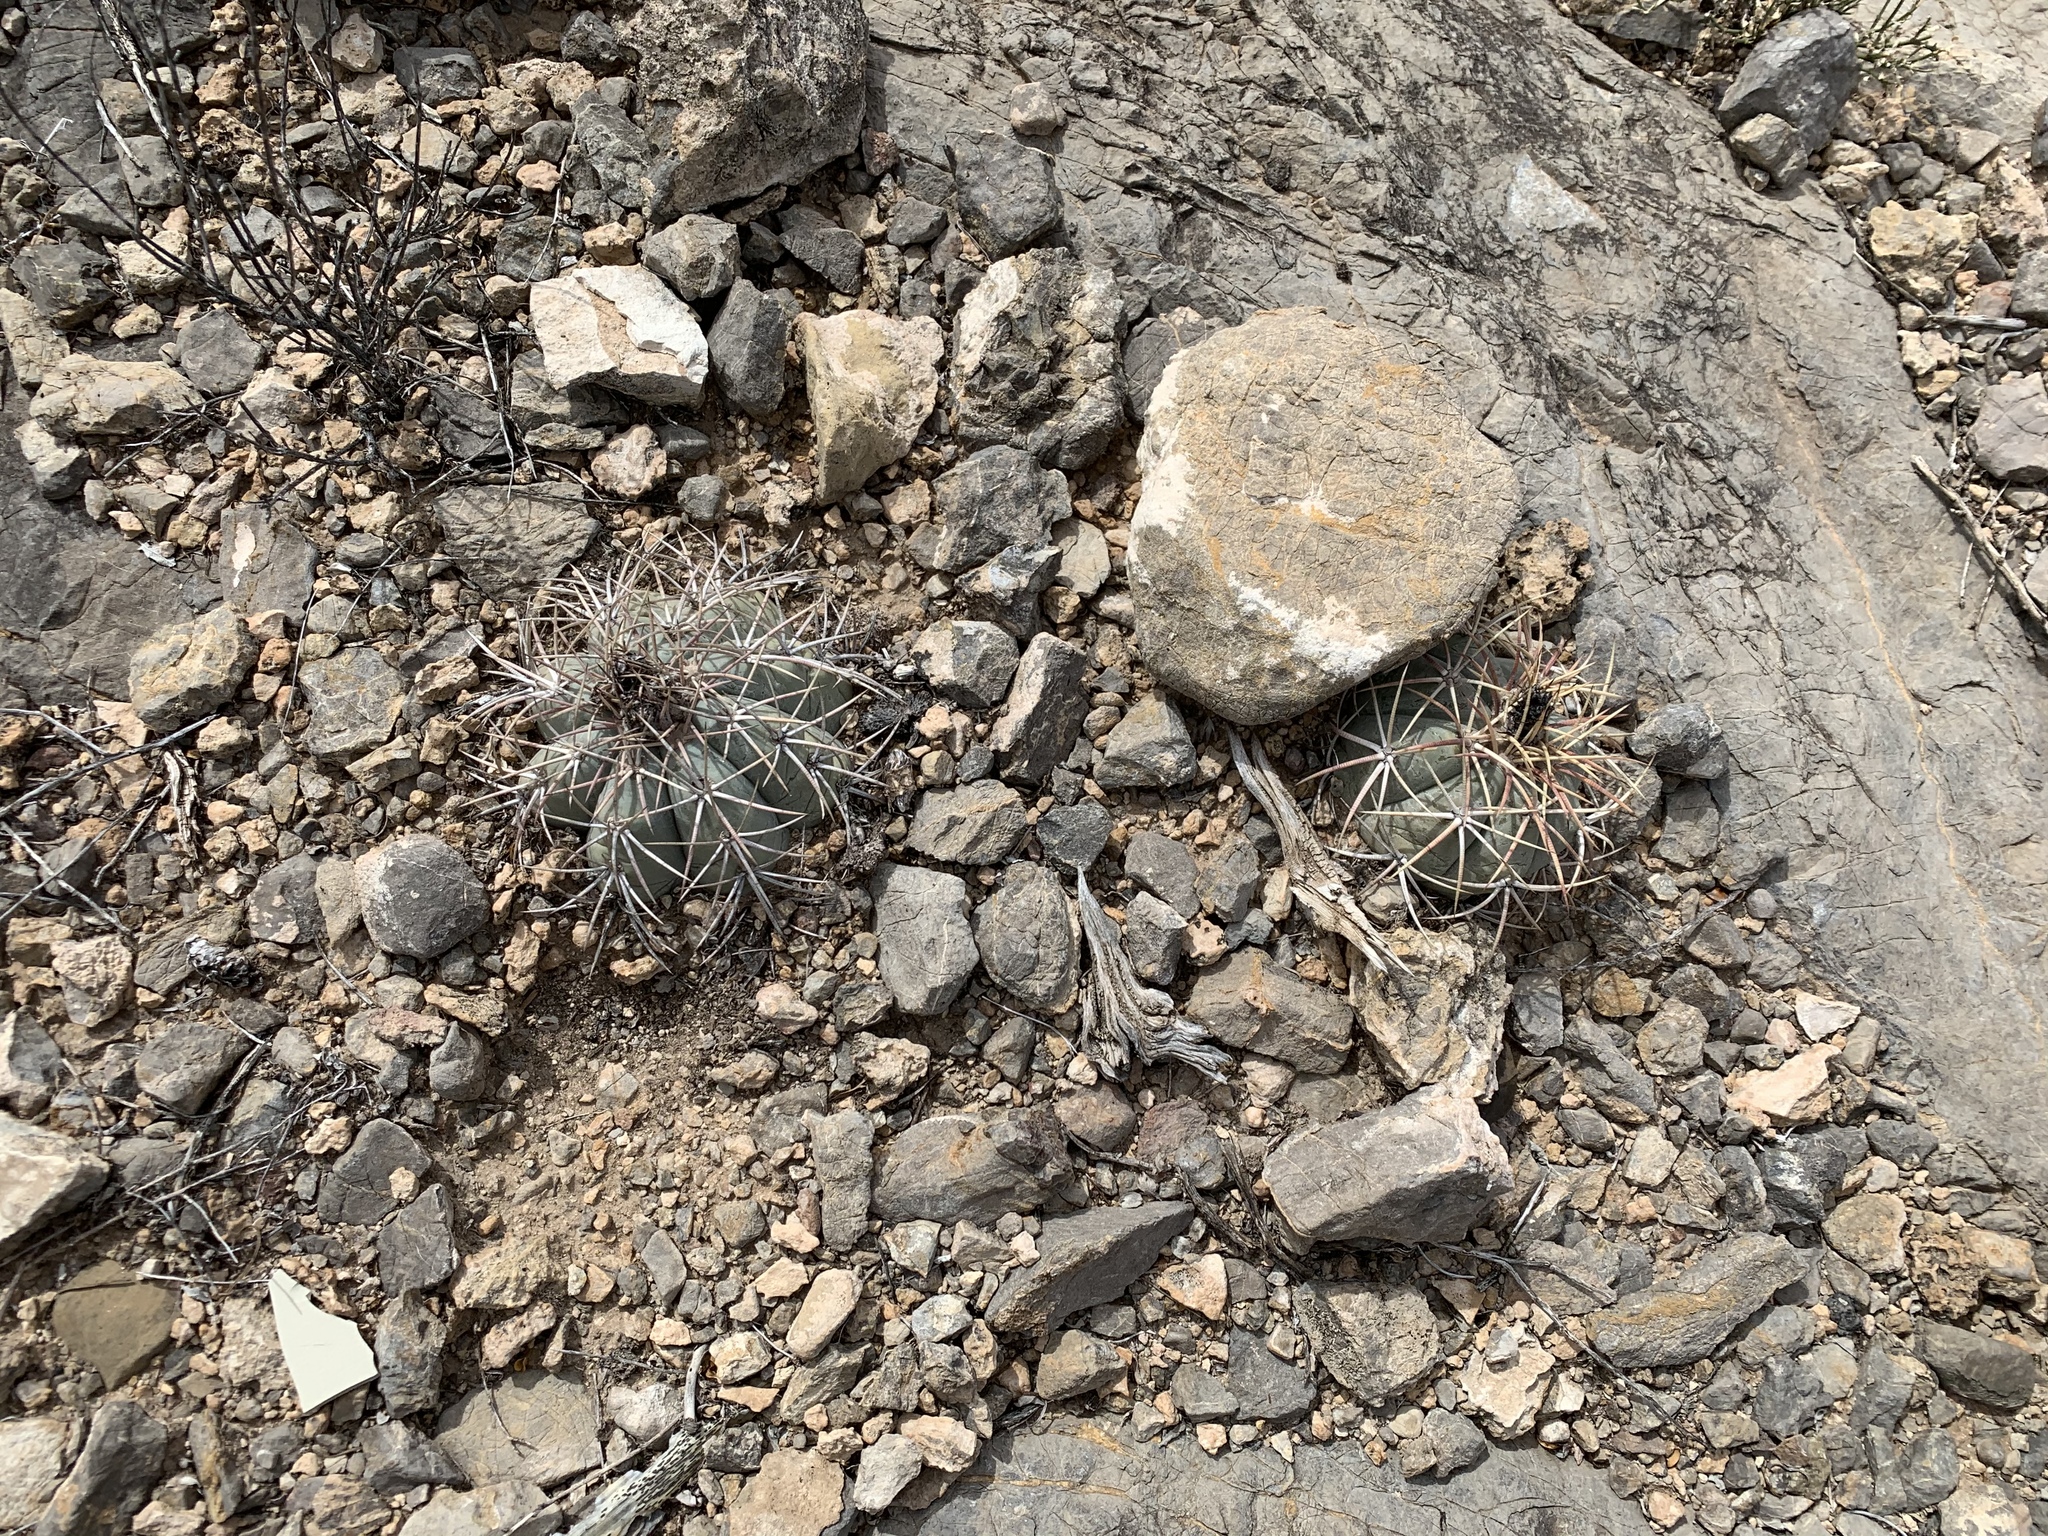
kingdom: Plantae
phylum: Tracheophyta
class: Magnoliopsida
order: Caryophyllales
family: Cactaceae
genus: Echinocactus
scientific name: Echinocactus horizonthalonius
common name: Devilshead
